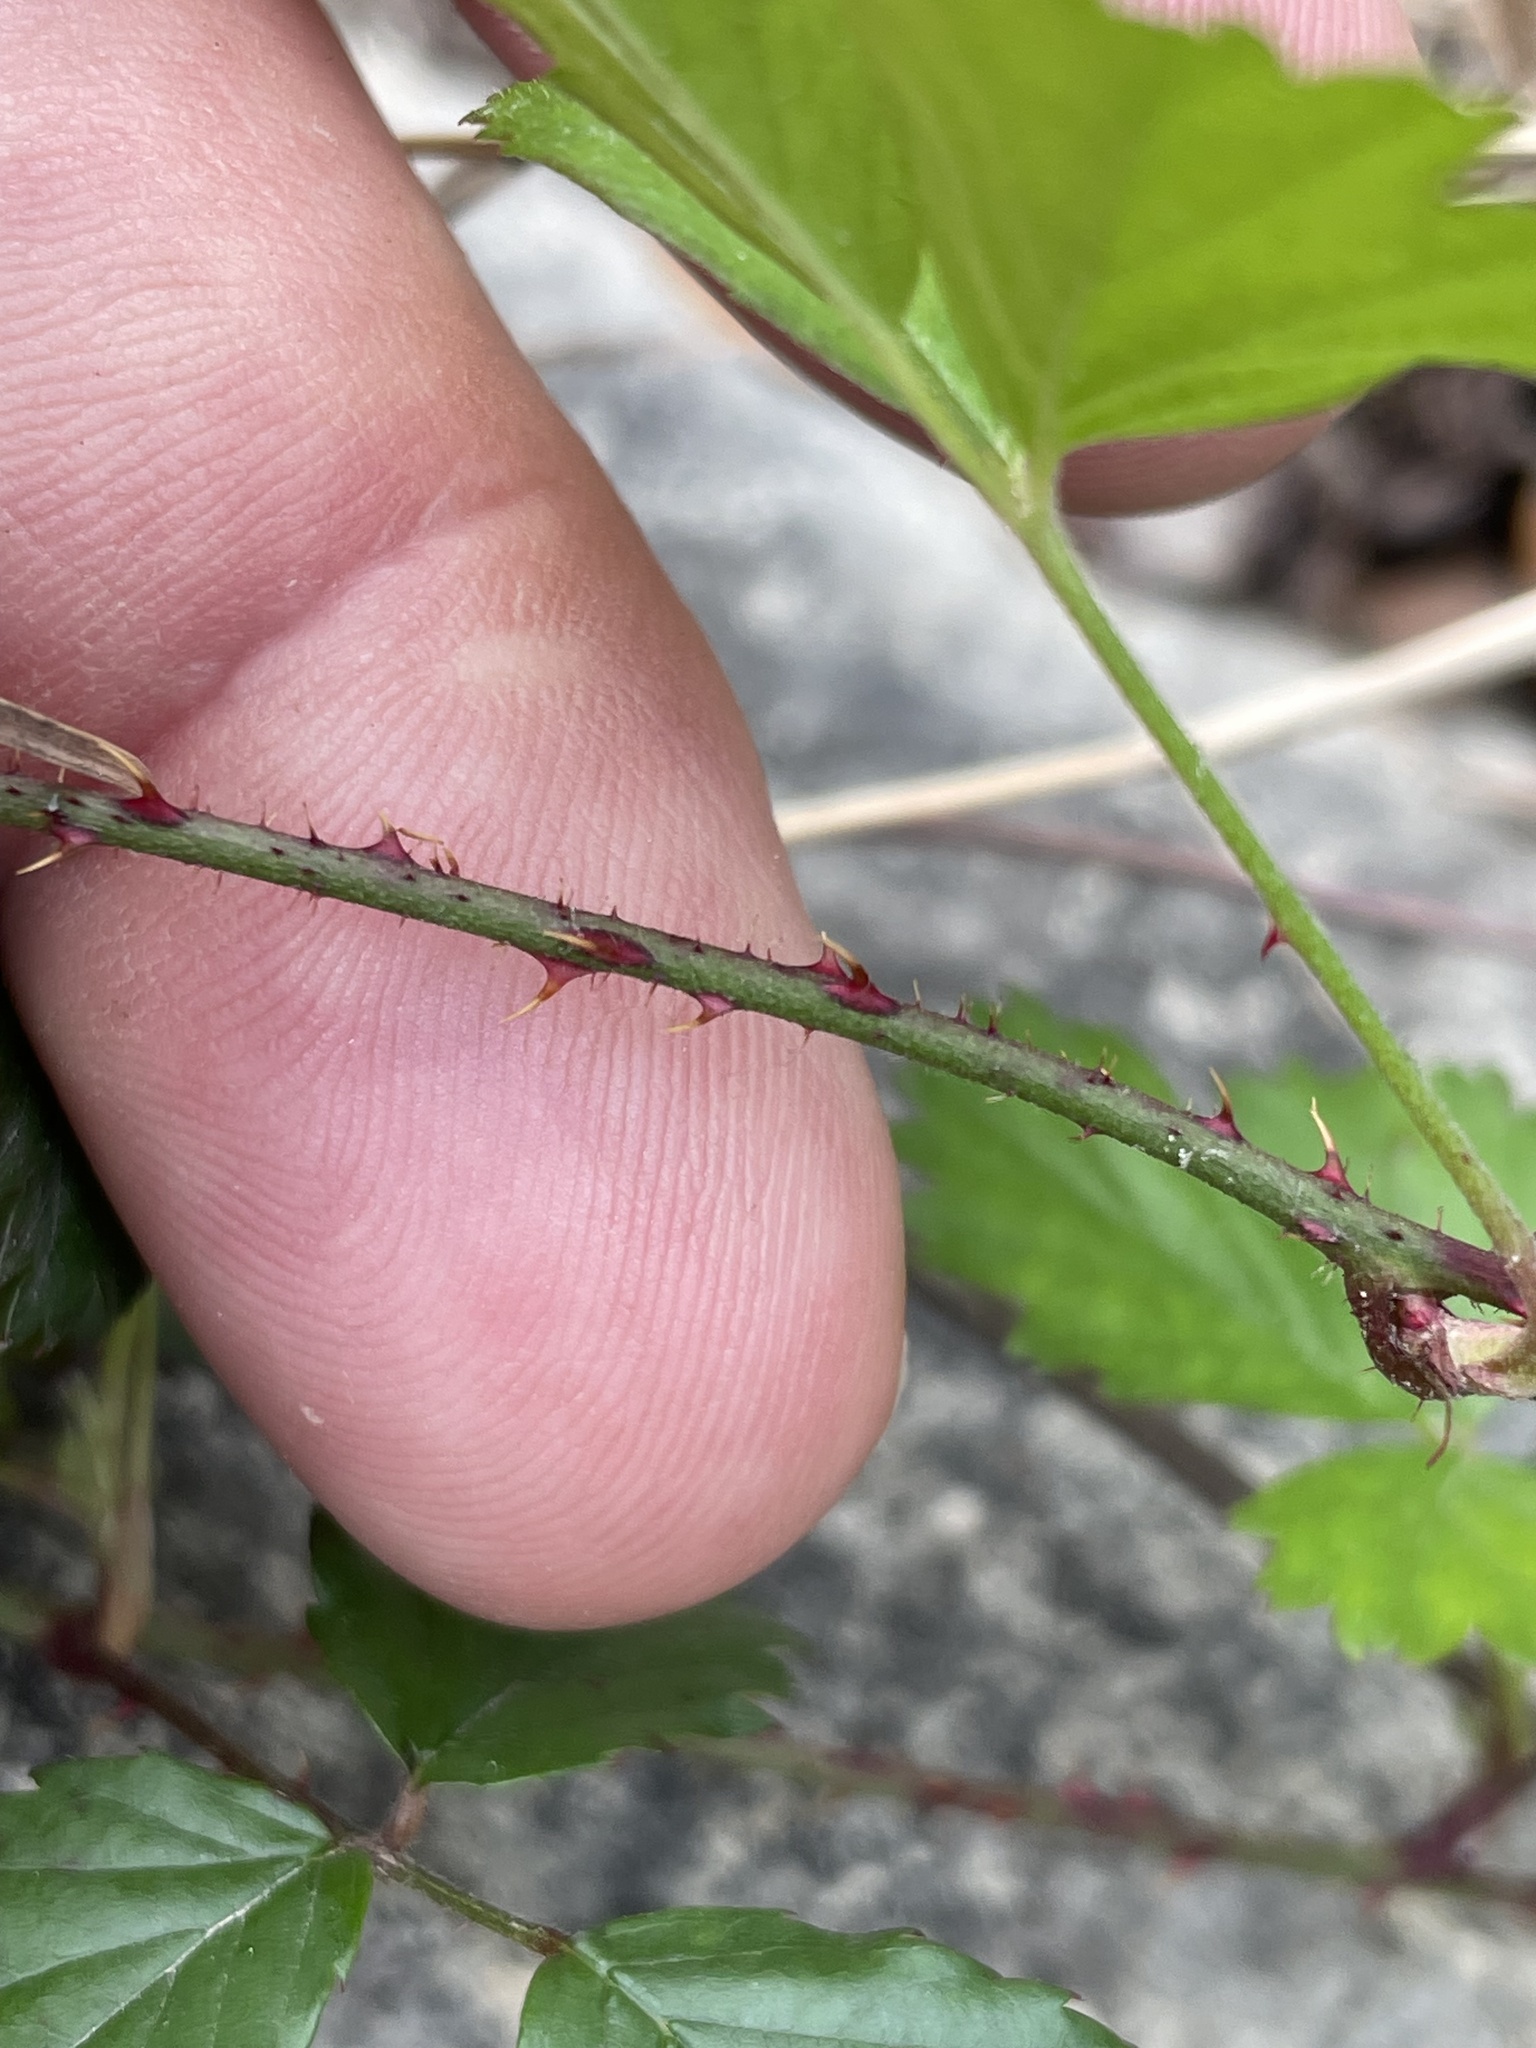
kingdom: Plantae
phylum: Tracheophyta
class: Magnoliopsida
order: Rosales
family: Rosaceae
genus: Rubus
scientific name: Rubus trivialis
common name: Southern dewberry
